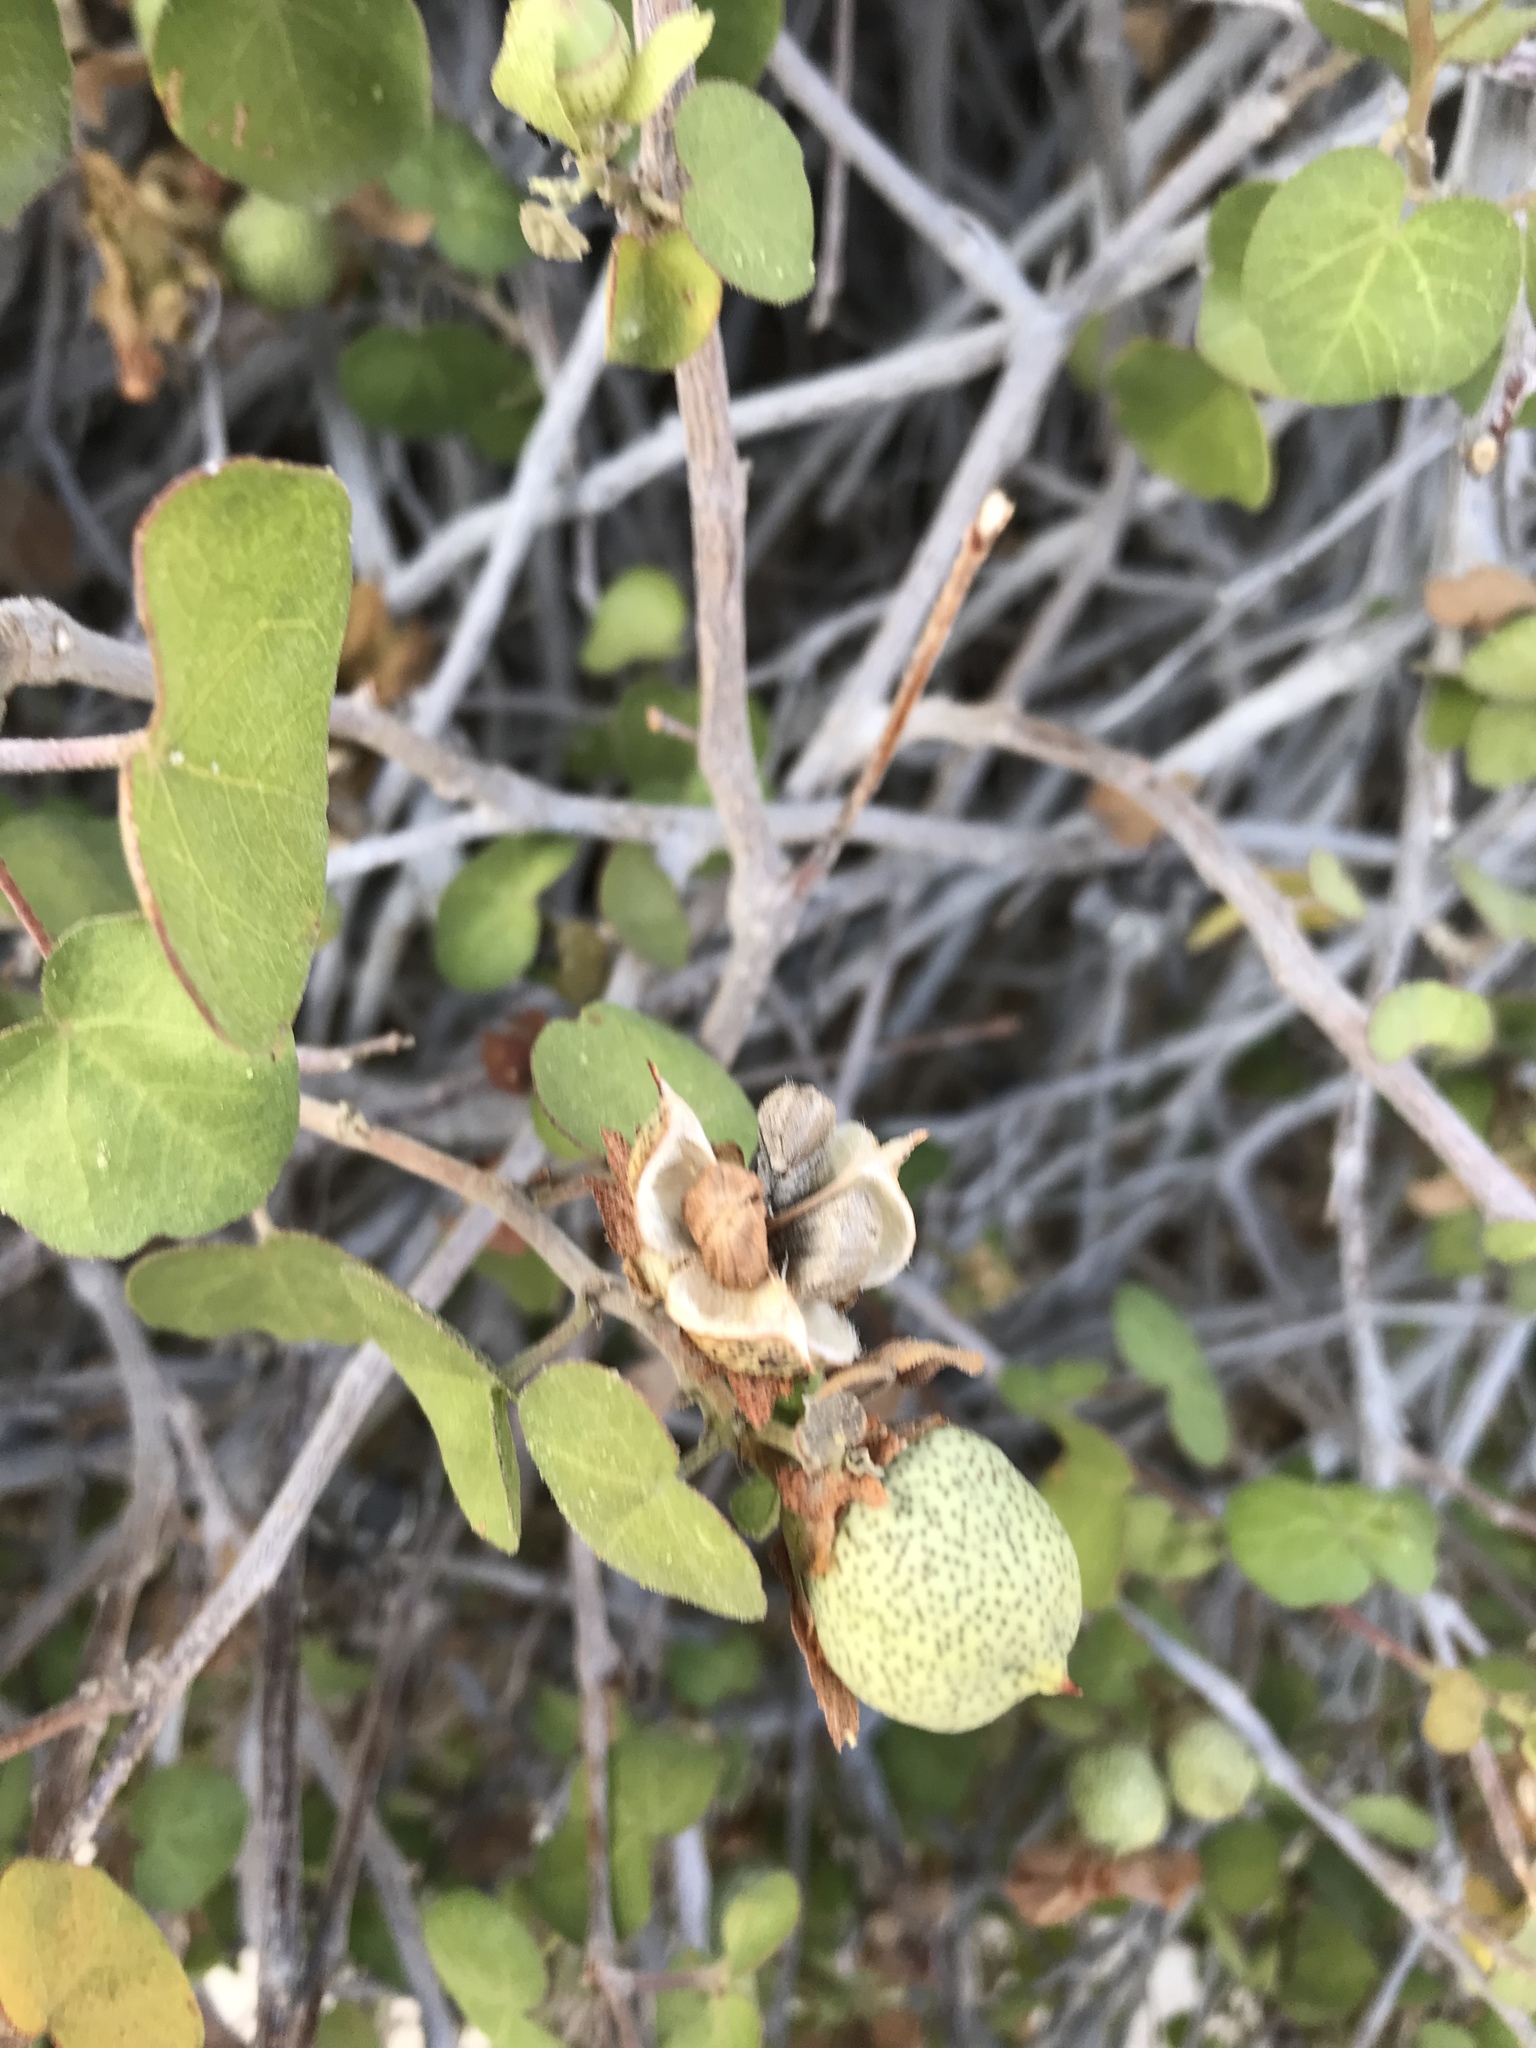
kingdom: Plantae
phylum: Tracheophyta
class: Magnoliopsida
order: Malvales
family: Malvaceae
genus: Gossypium
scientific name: Gossypium klotzschianum
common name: Galapagos cotton
